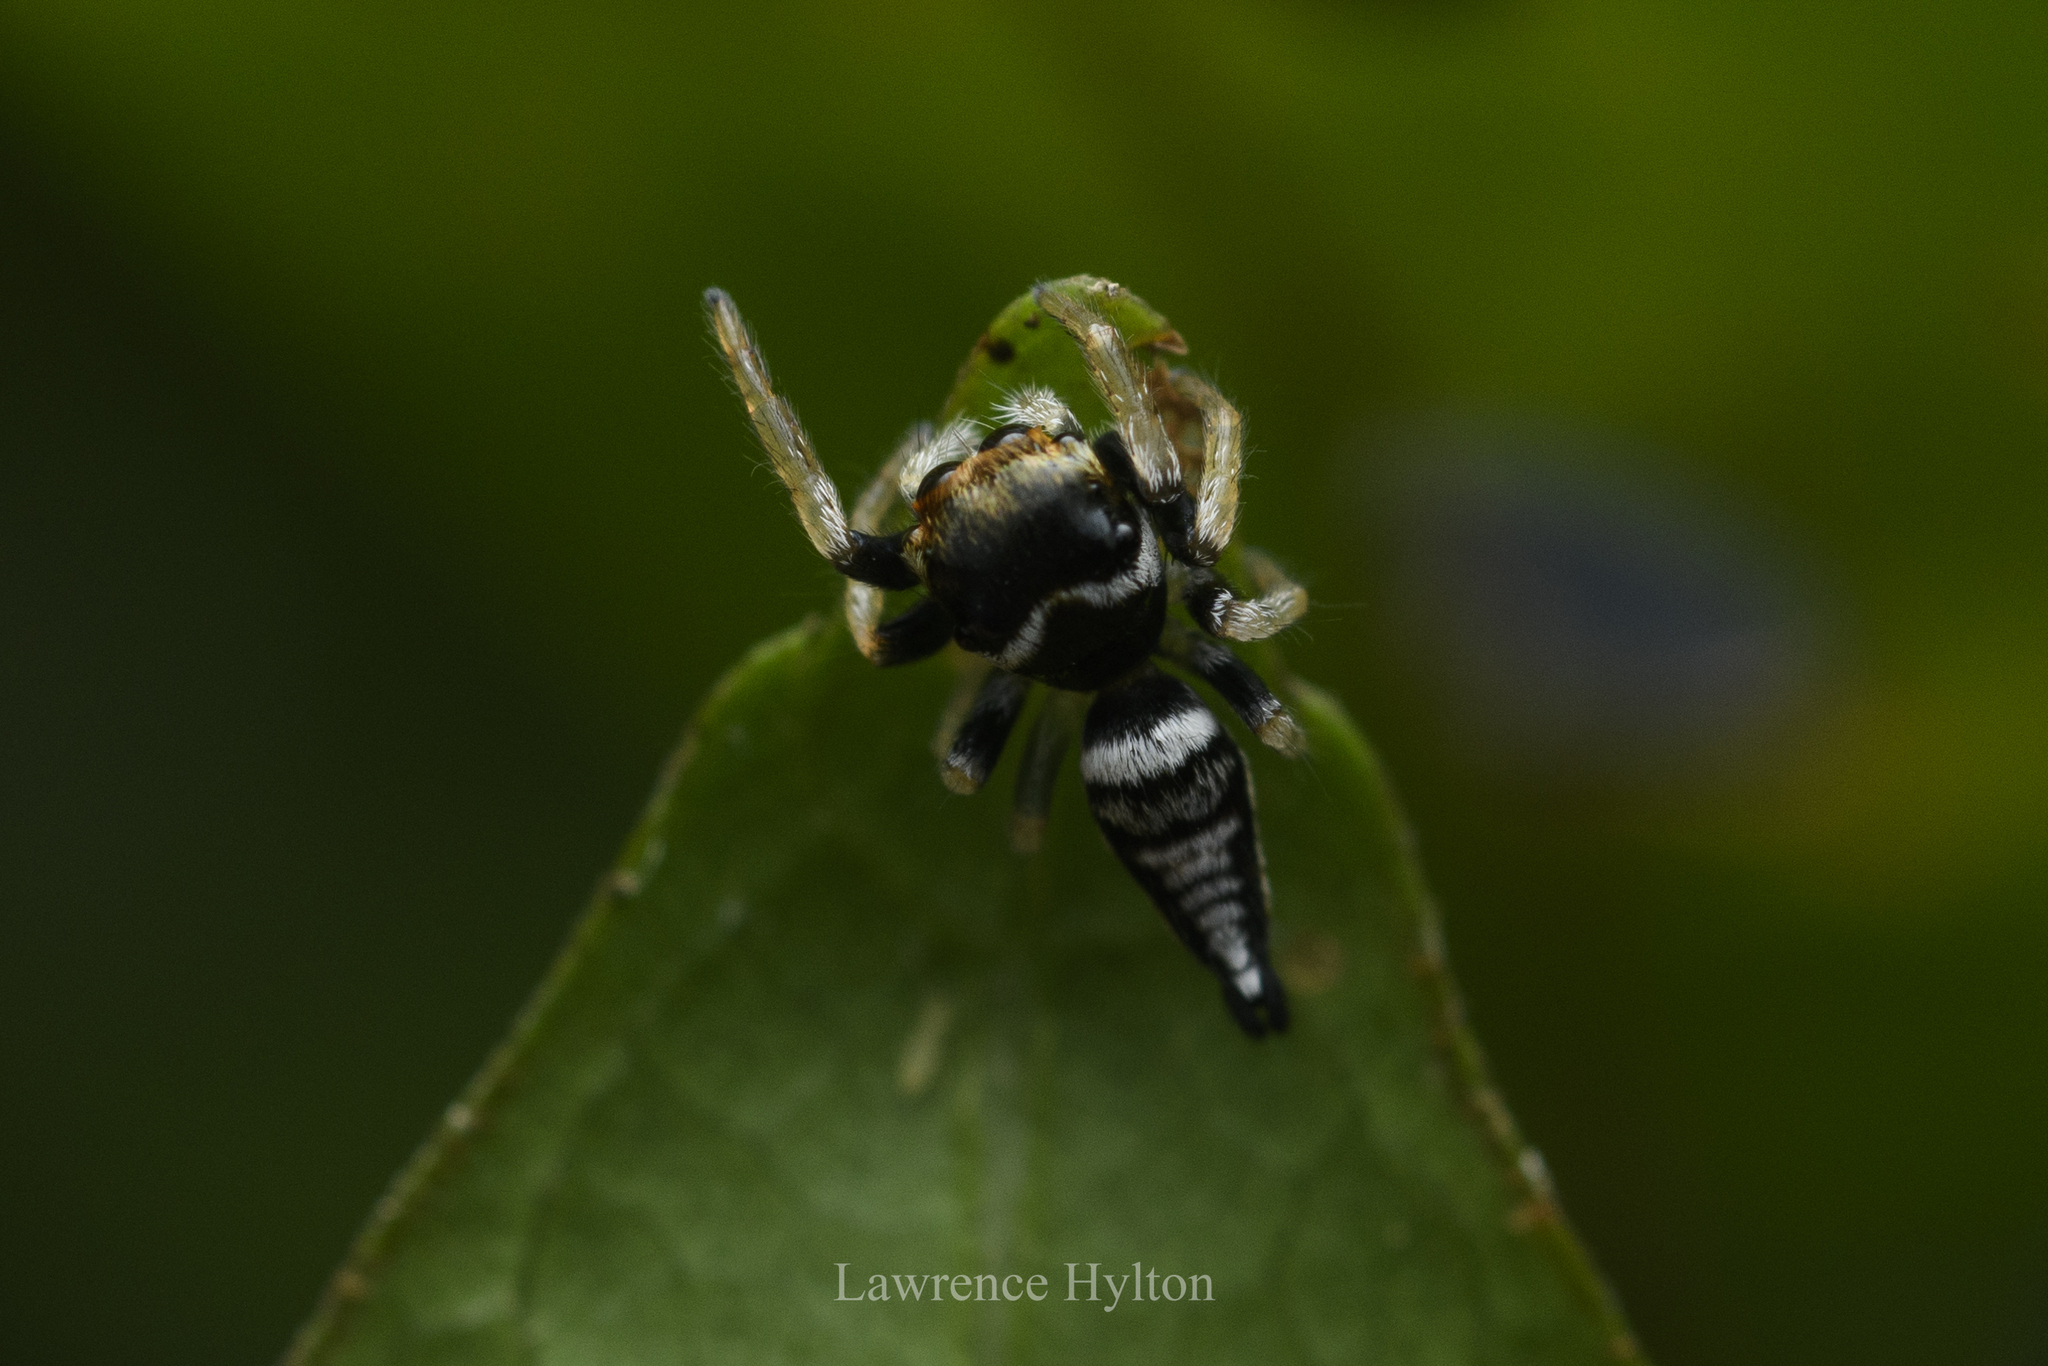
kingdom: Animalia
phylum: Arthropoda
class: Arachnida
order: Araneae
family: Salticidae
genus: Ptocasius
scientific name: Ptocasius weyersi
